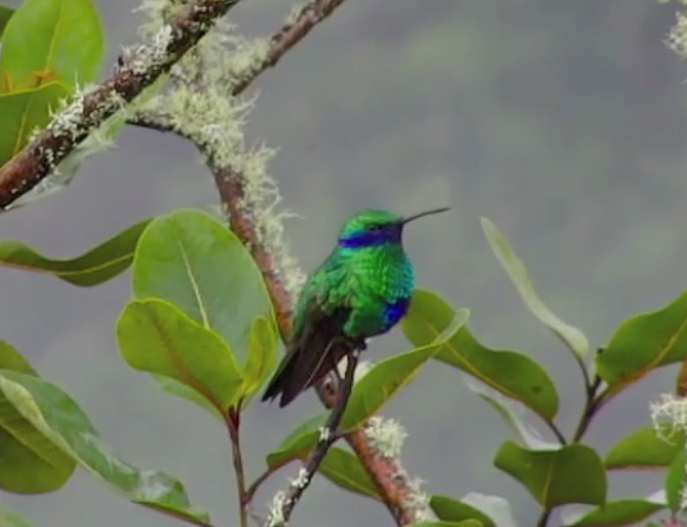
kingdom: Animalia
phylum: Chordata
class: Aves
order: Apodiformes
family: Trochilidae
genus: Colibri
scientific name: Colibri coruscans
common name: Sparkling violetear
